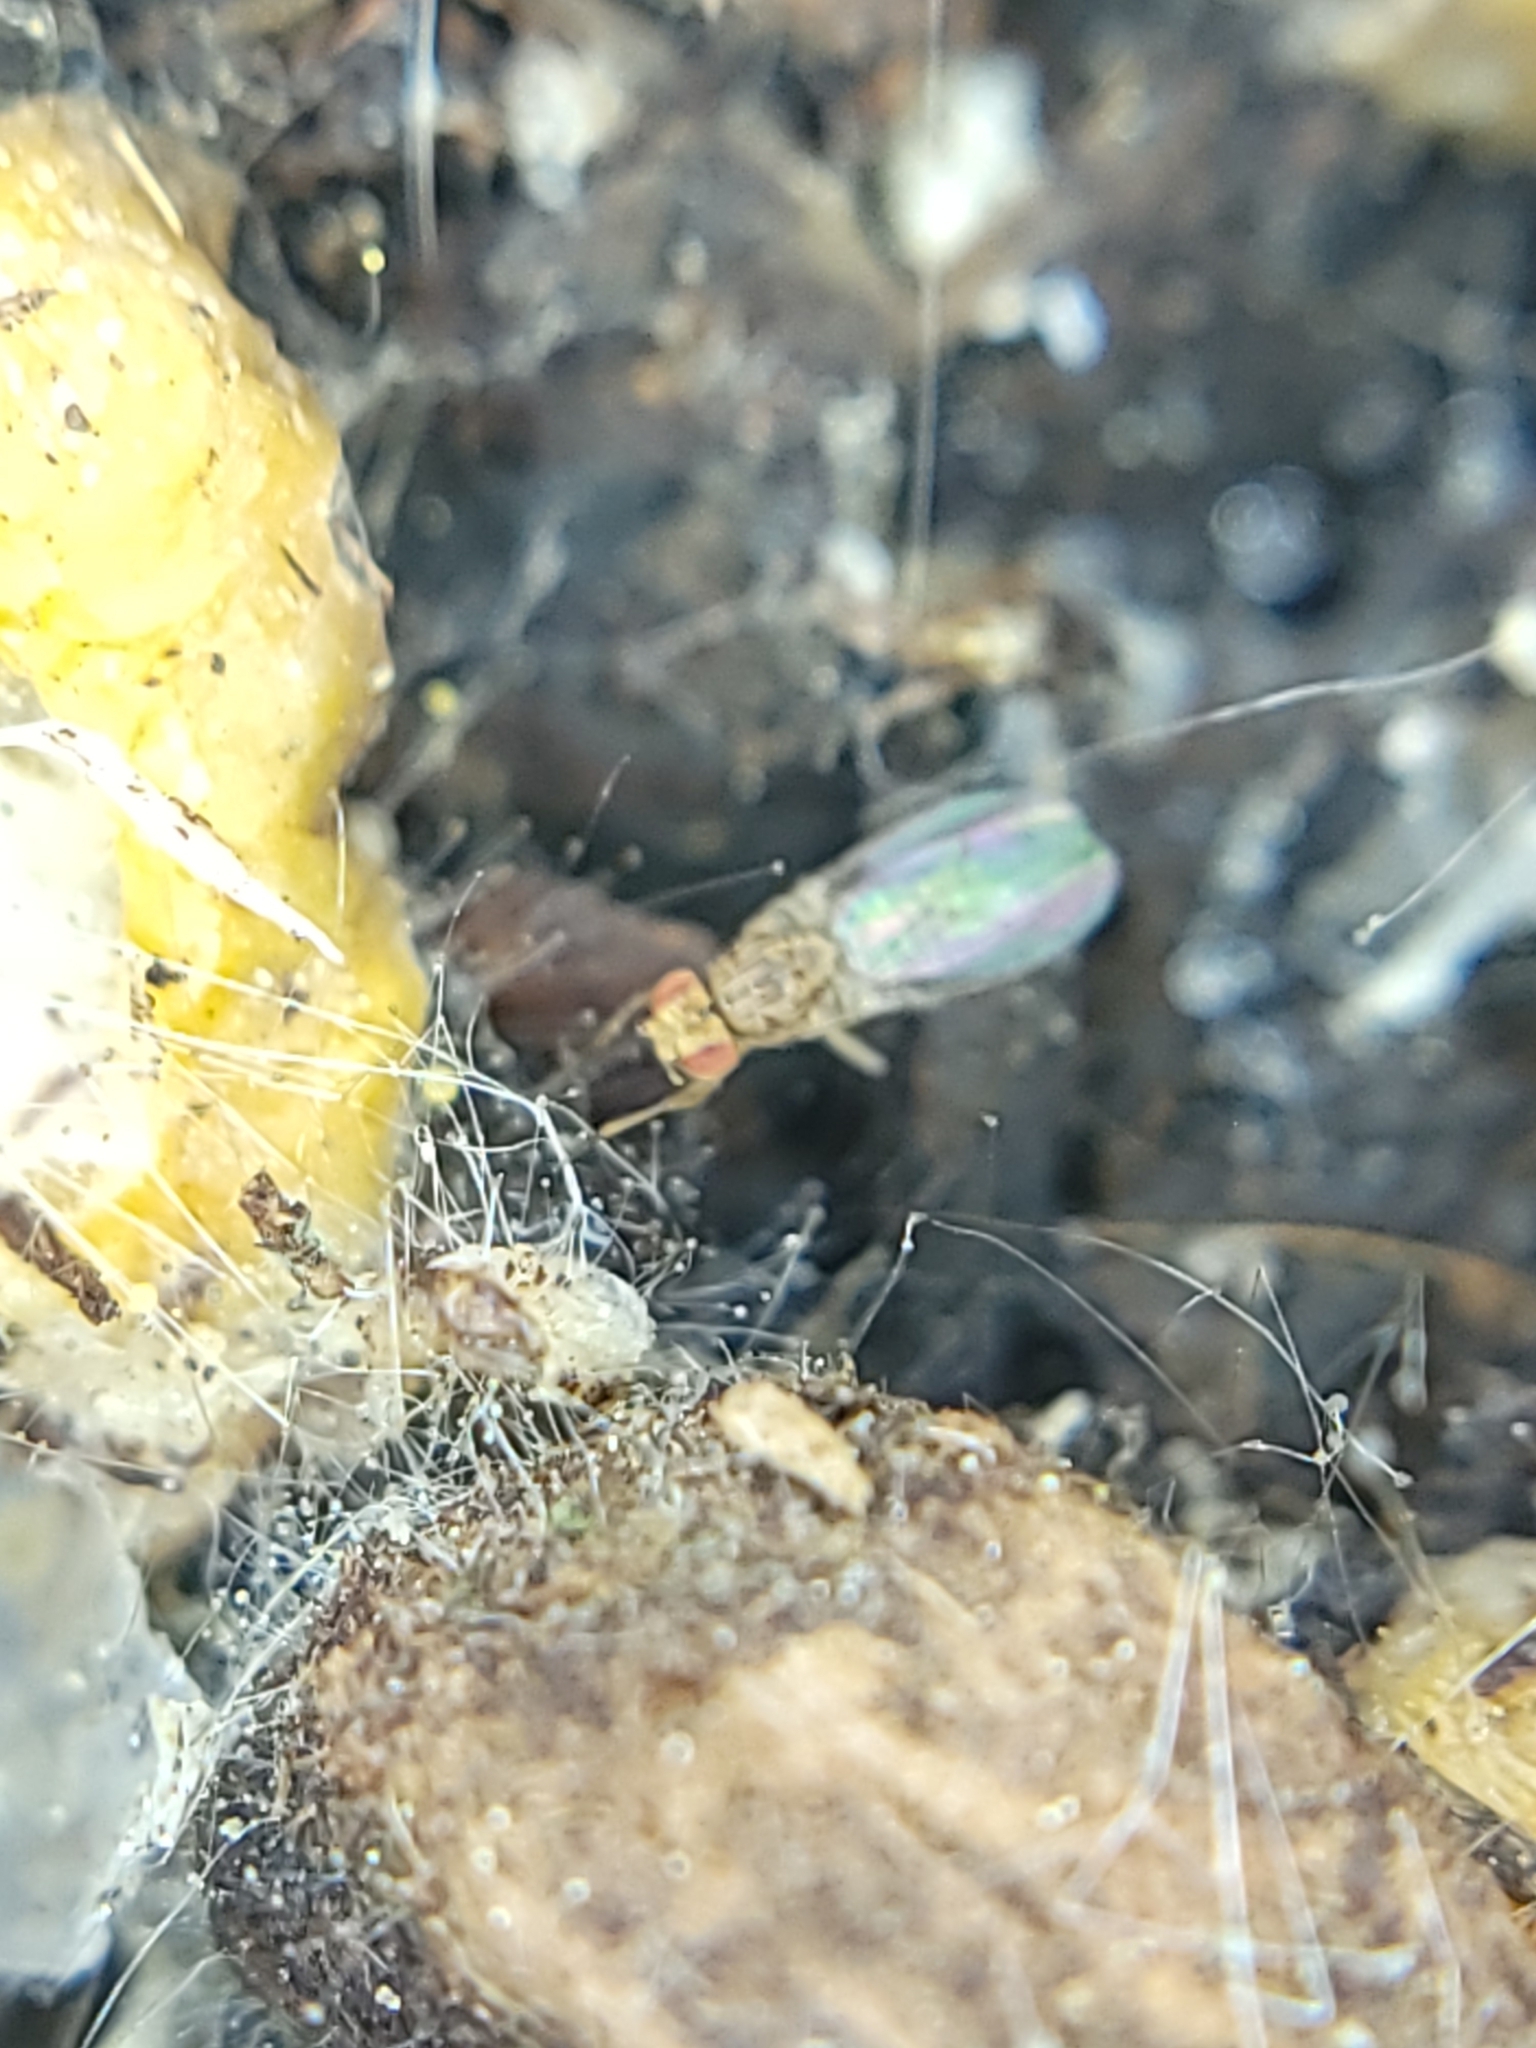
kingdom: Animalia
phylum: Arthropoda
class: Insecta
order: Diptera
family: Drosophilidae
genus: Drosophila
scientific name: Drosophila busckii
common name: Pomace fly
